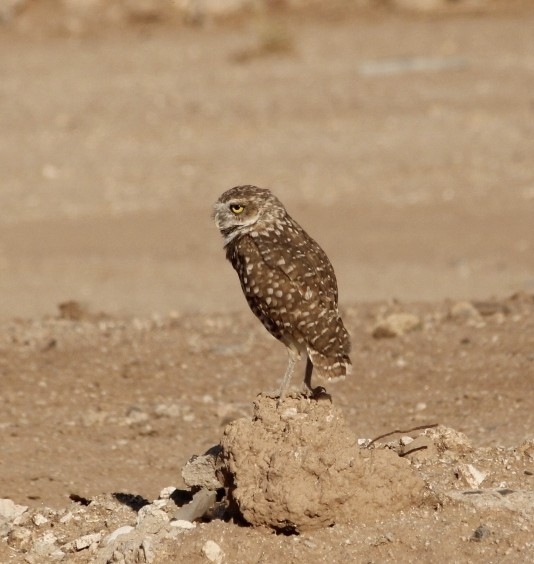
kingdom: Animalia
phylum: Chordata
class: Aves
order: Strigiformes
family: Strigidae
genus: Athene
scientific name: Athene cunicularia
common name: Burrowing owl
